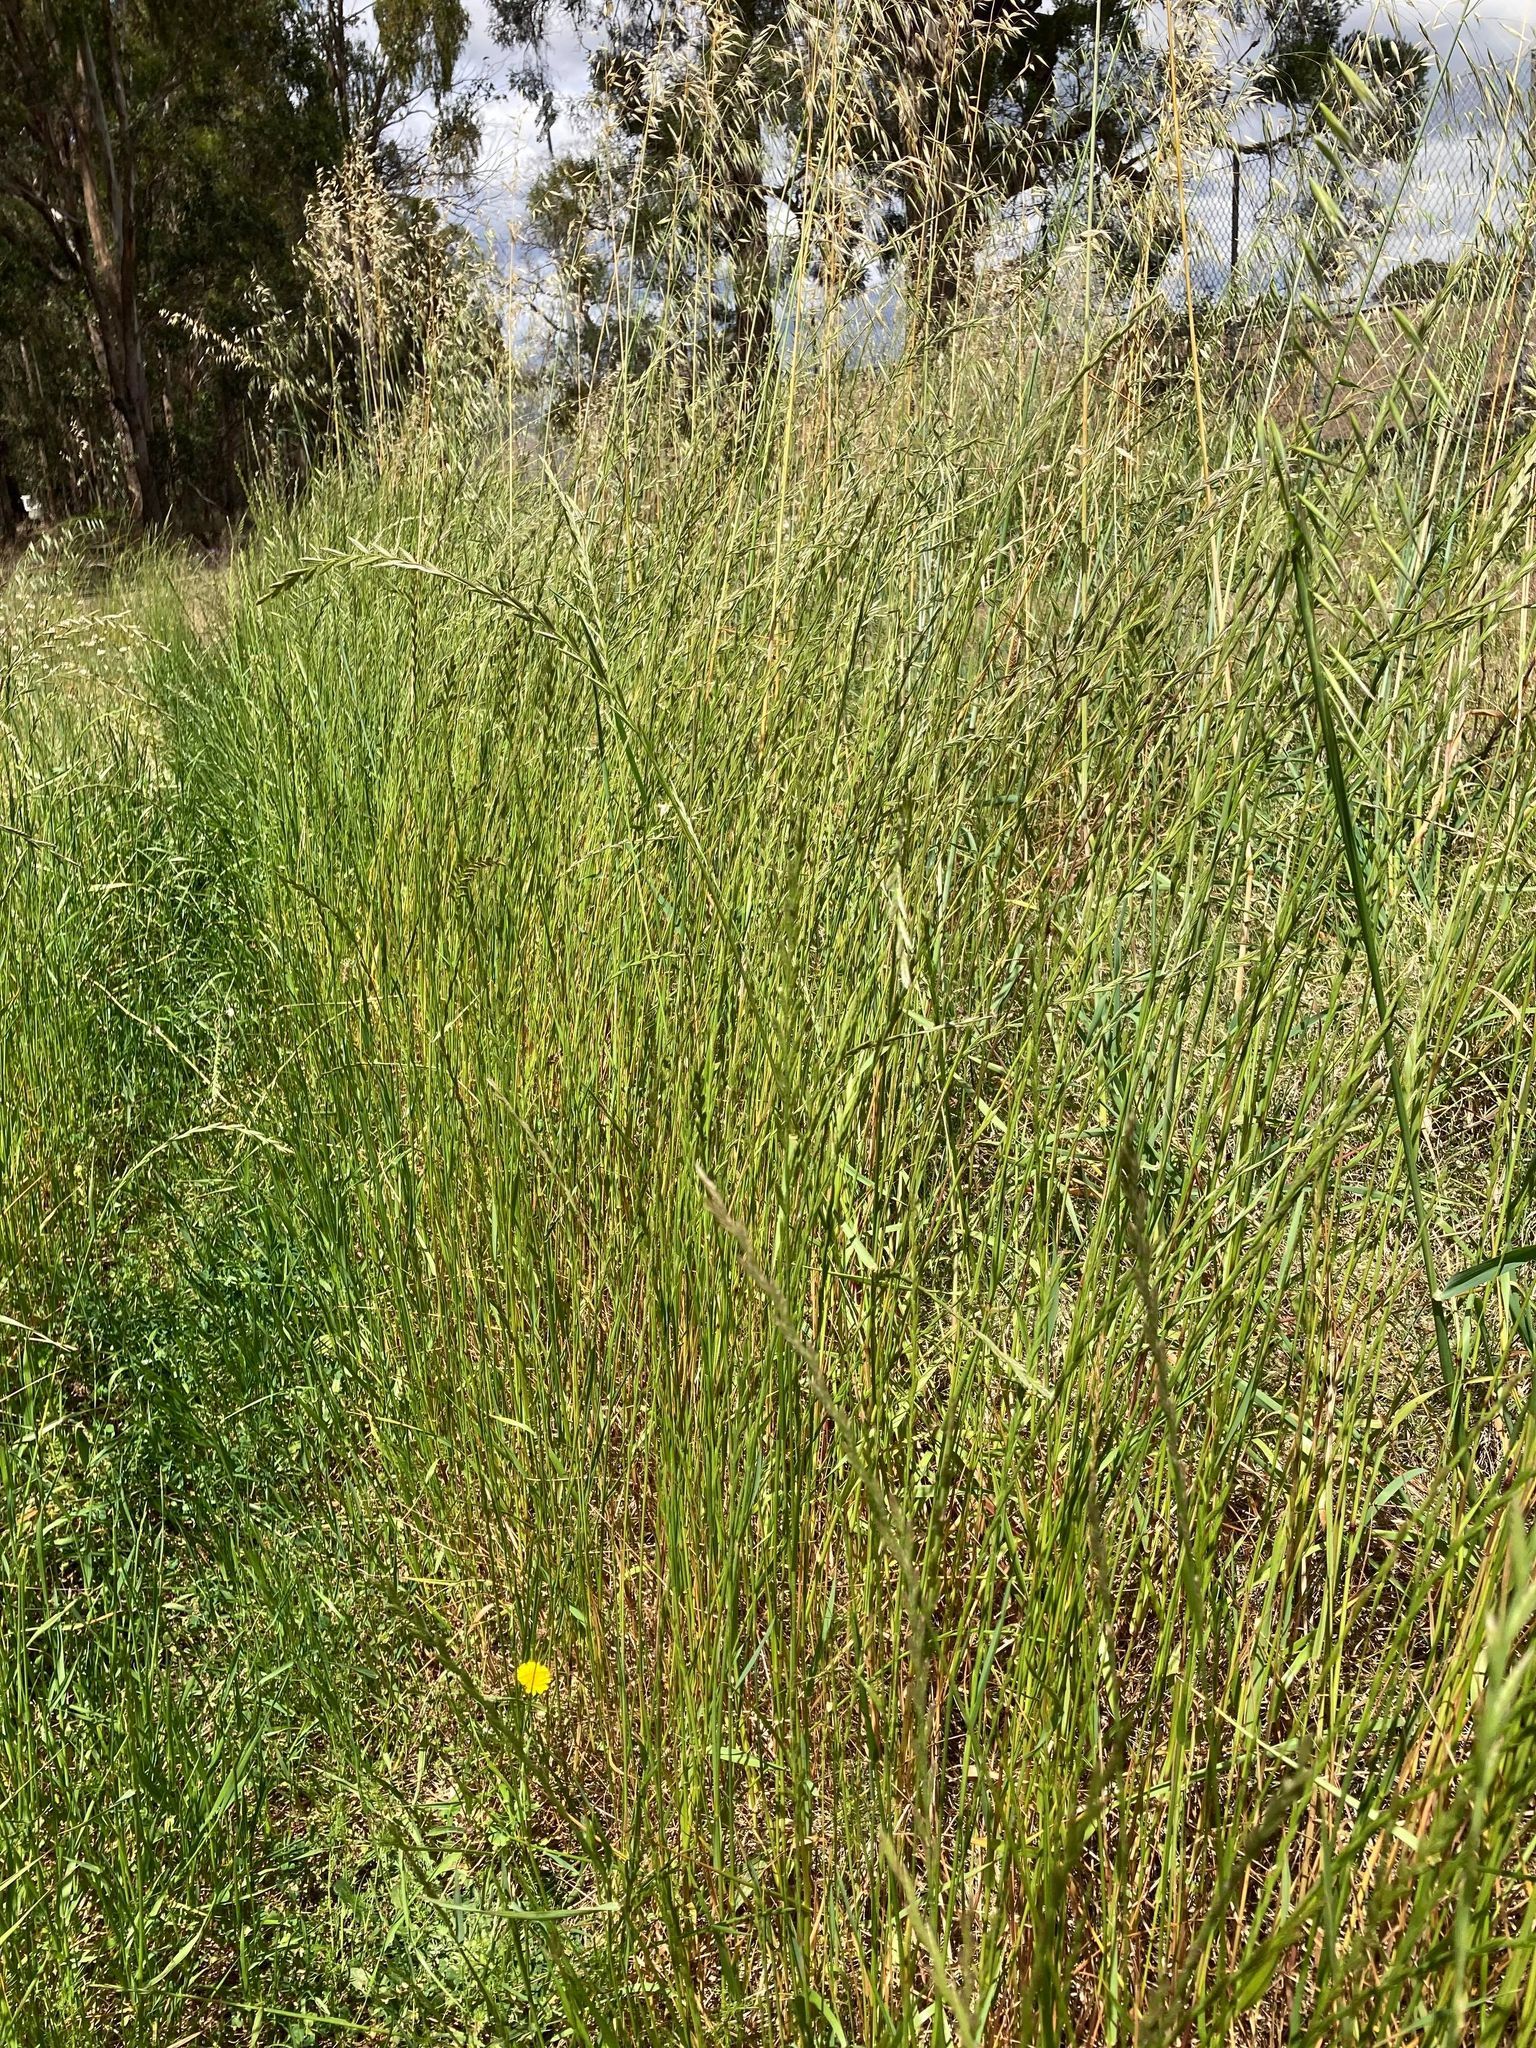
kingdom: Plantae
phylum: Tracheophyta
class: Liliopsida
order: Poales
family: Poaceae
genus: Lolium
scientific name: Lolium multiflorum
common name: Annual ryegrass
